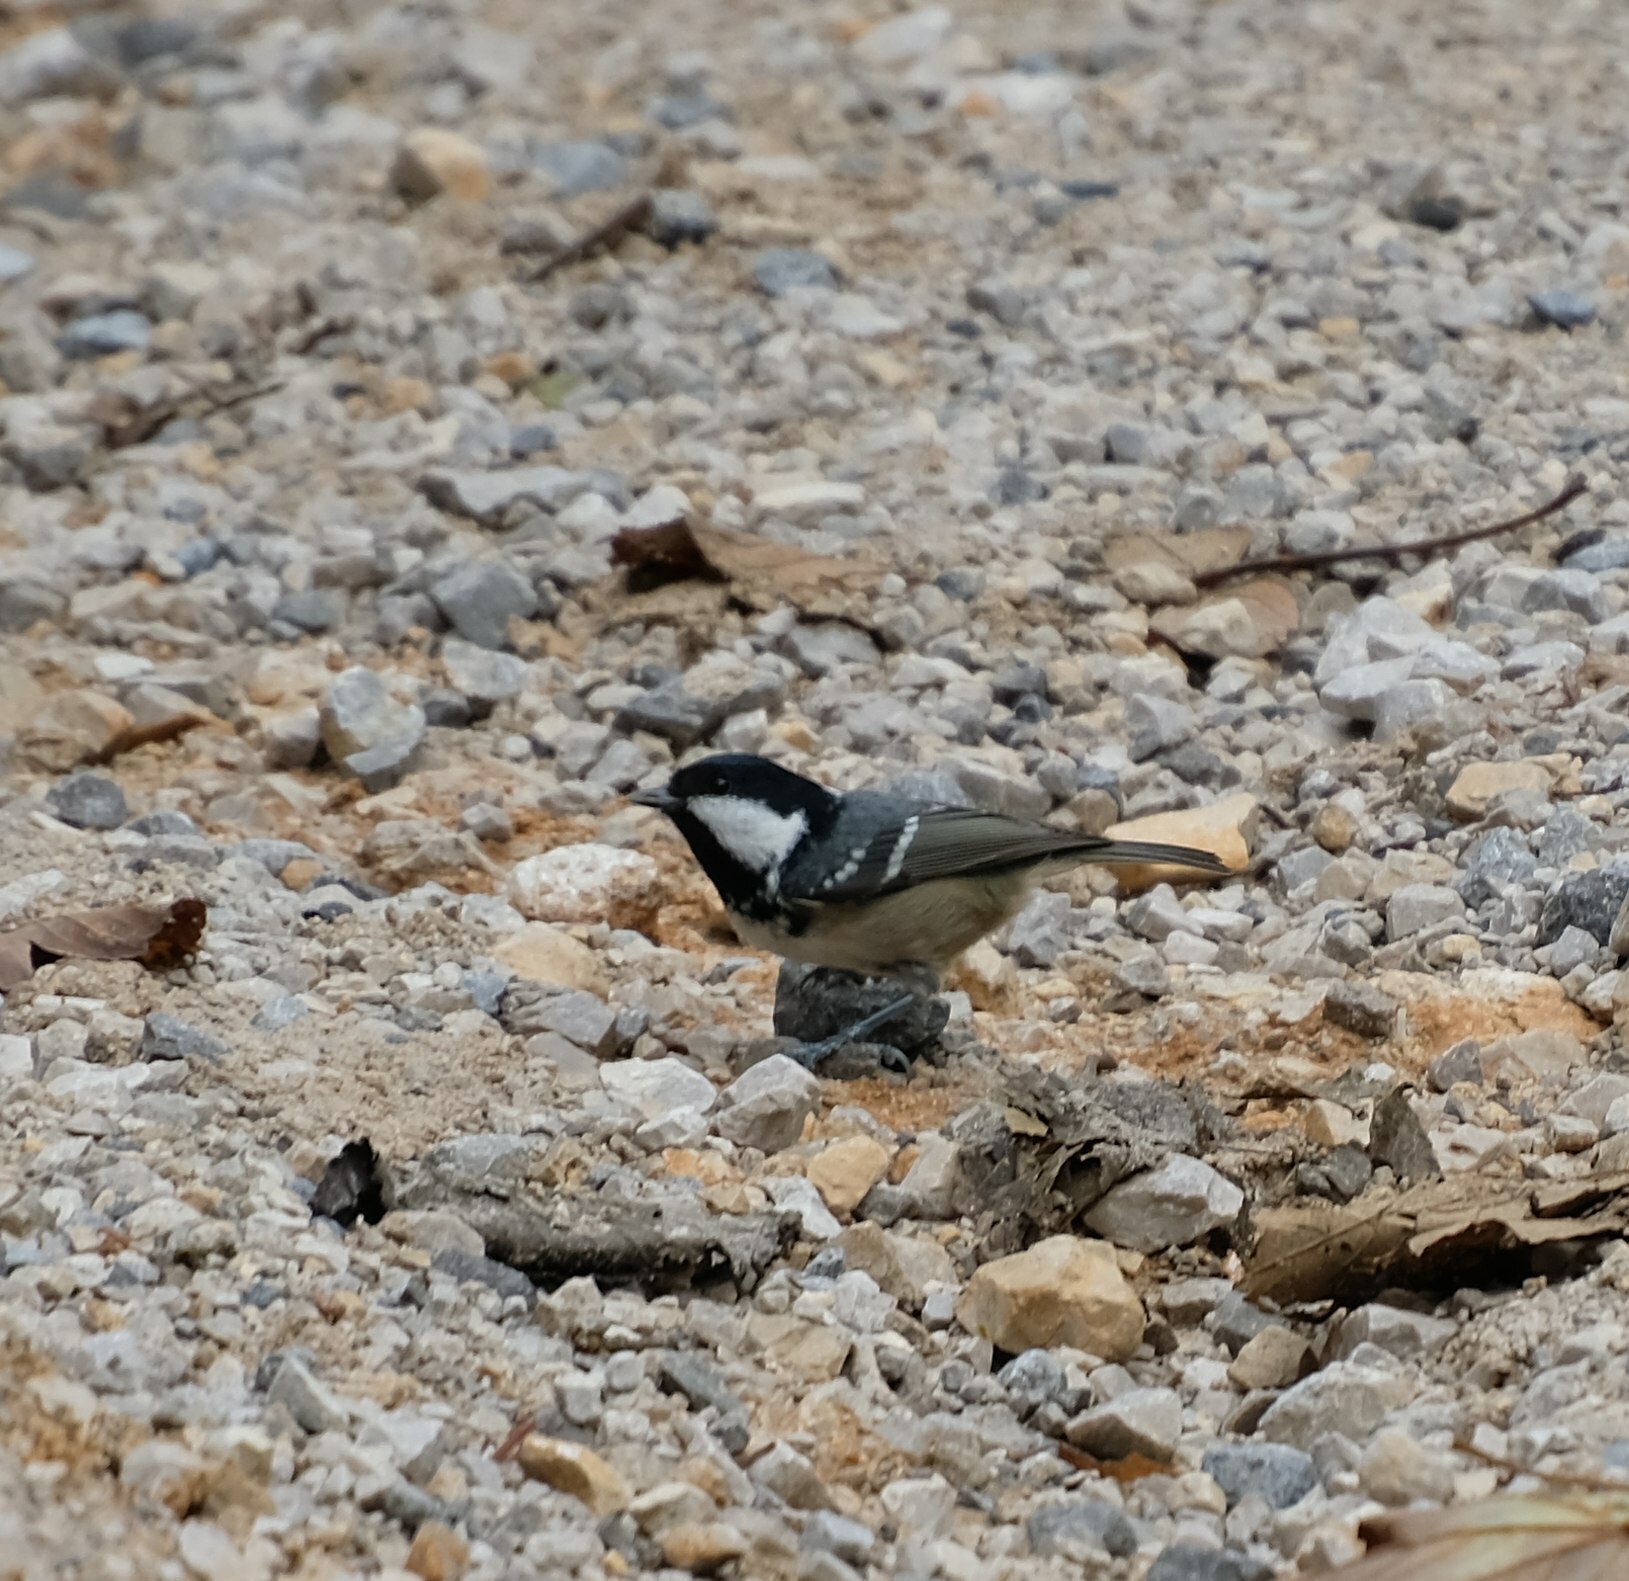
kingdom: Animalia
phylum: Chordata
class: Aves
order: Passeriformes
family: Paridae
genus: Periparus
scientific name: Periparus ater
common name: Coal tit
